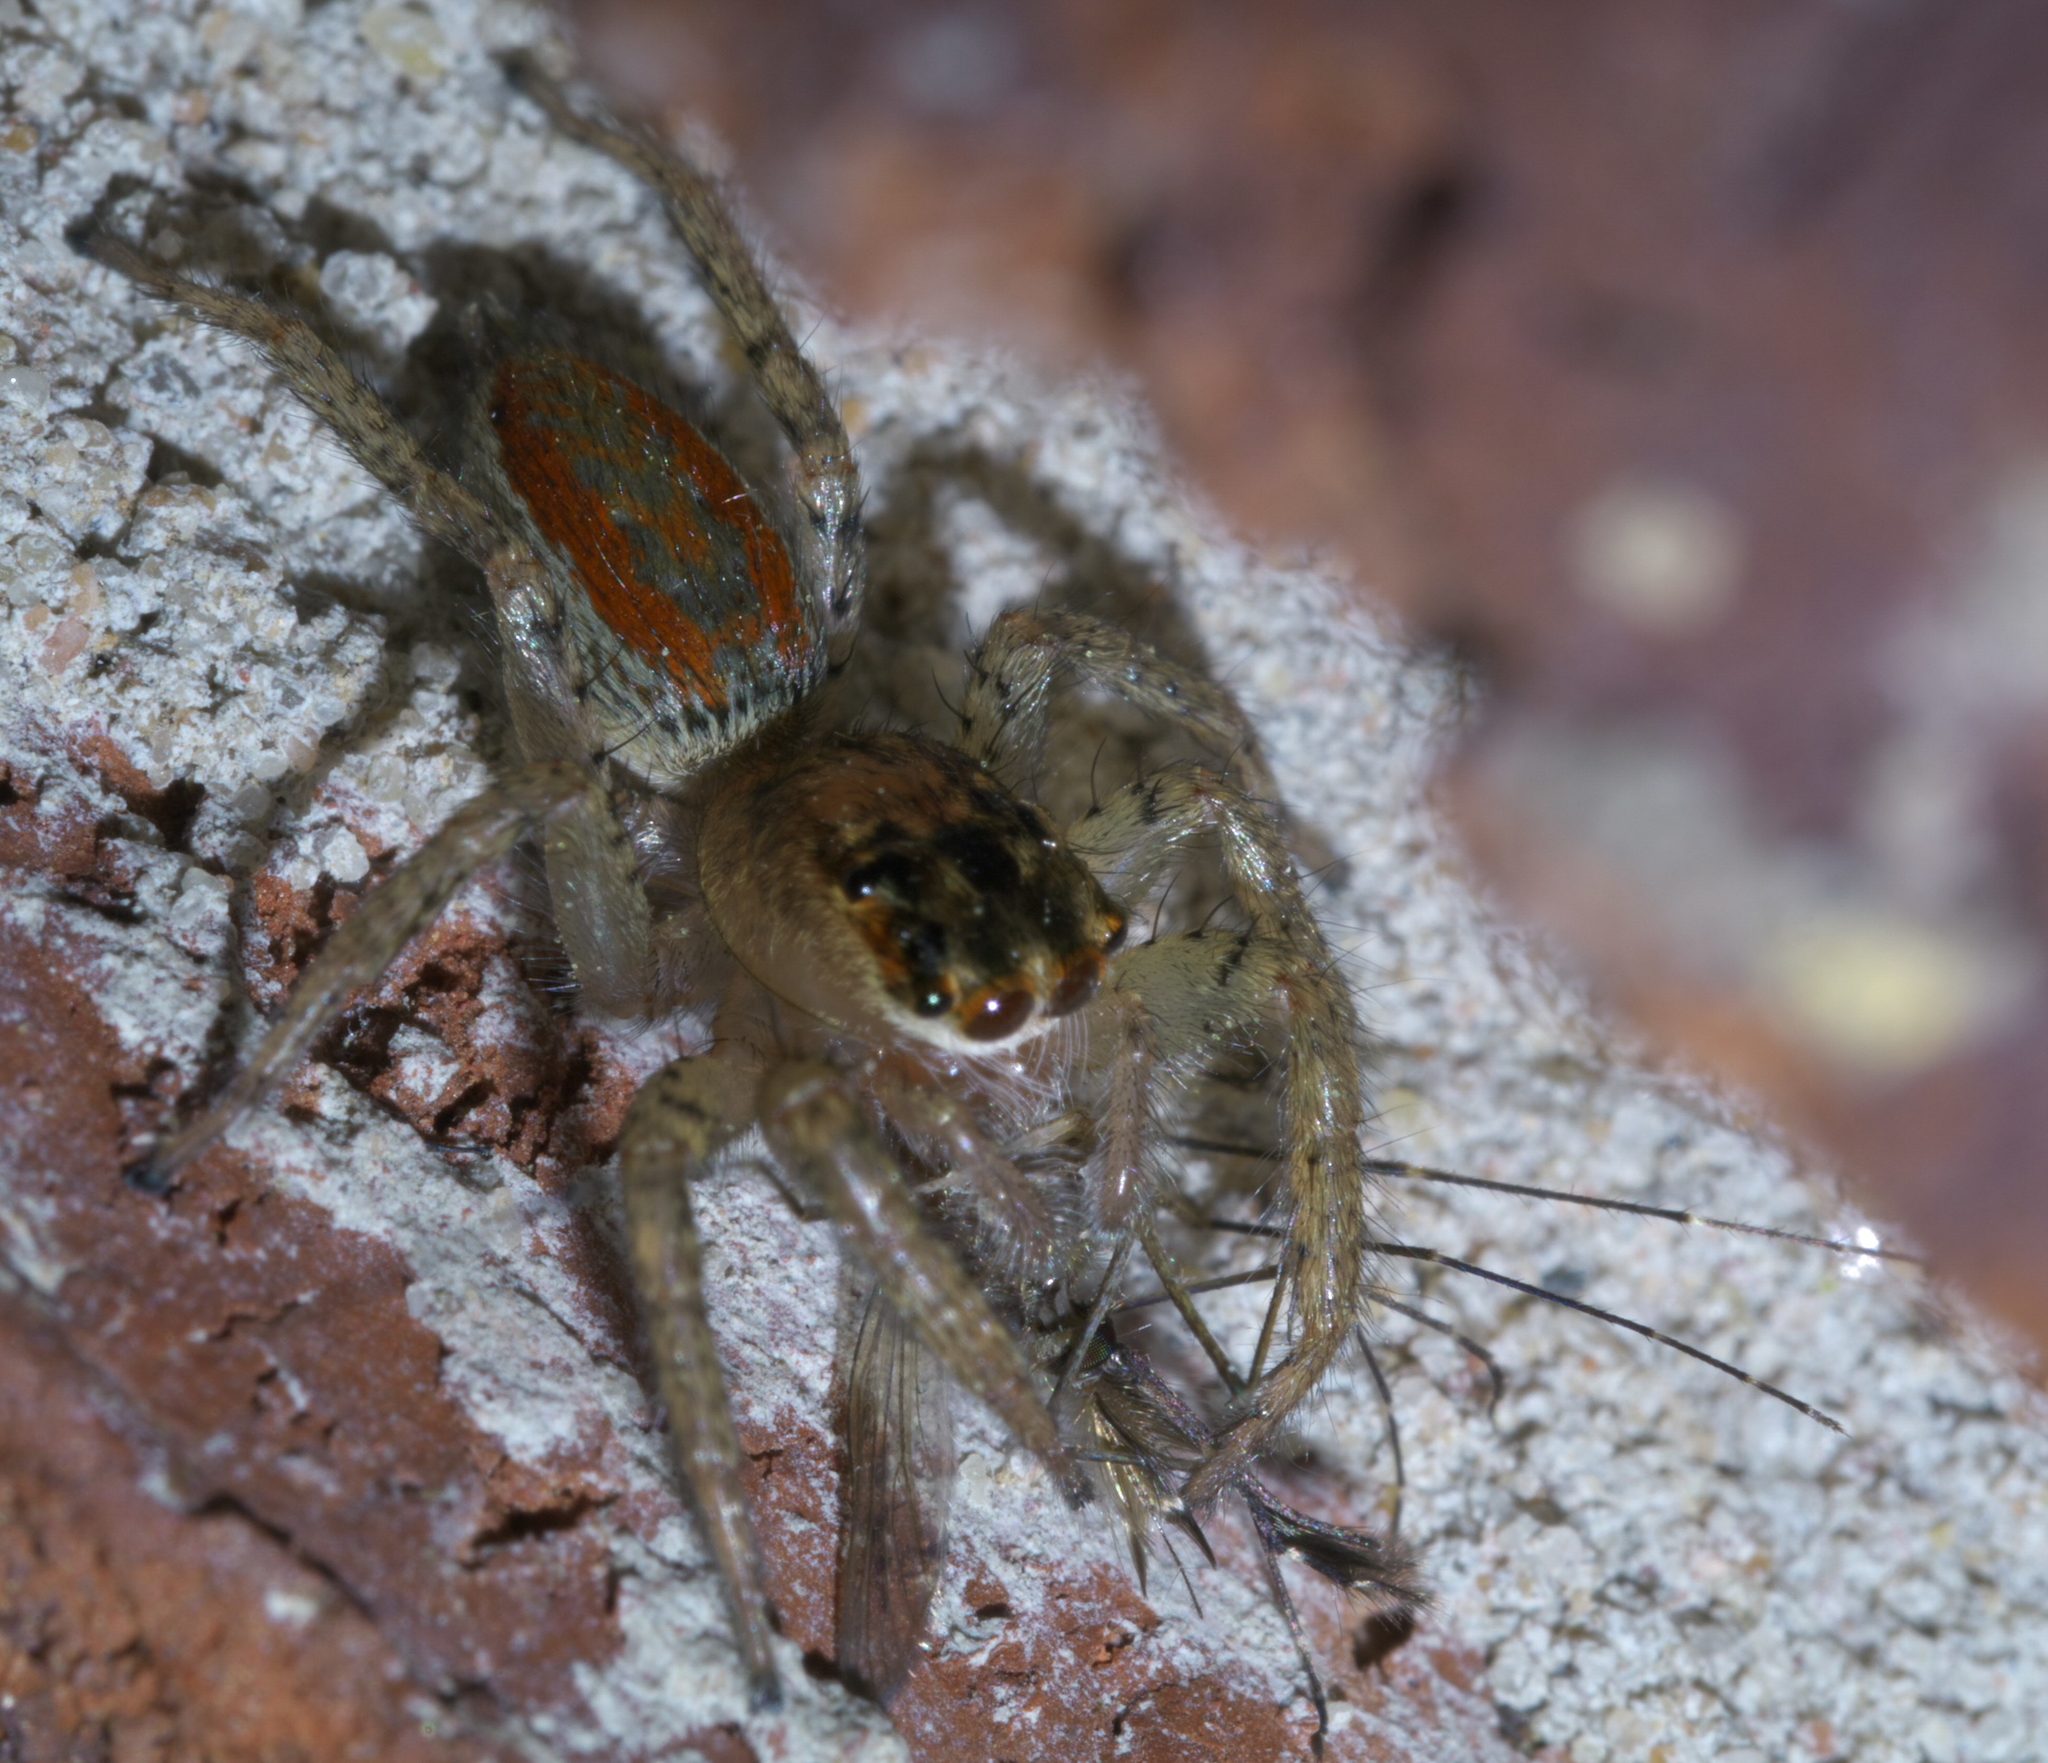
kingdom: Animalia
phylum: Arthropoda
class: Arachnida
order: Araneae
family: Salticidae
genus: Maevia
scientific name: Maevia inclemens
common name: Dimorphic jumper
